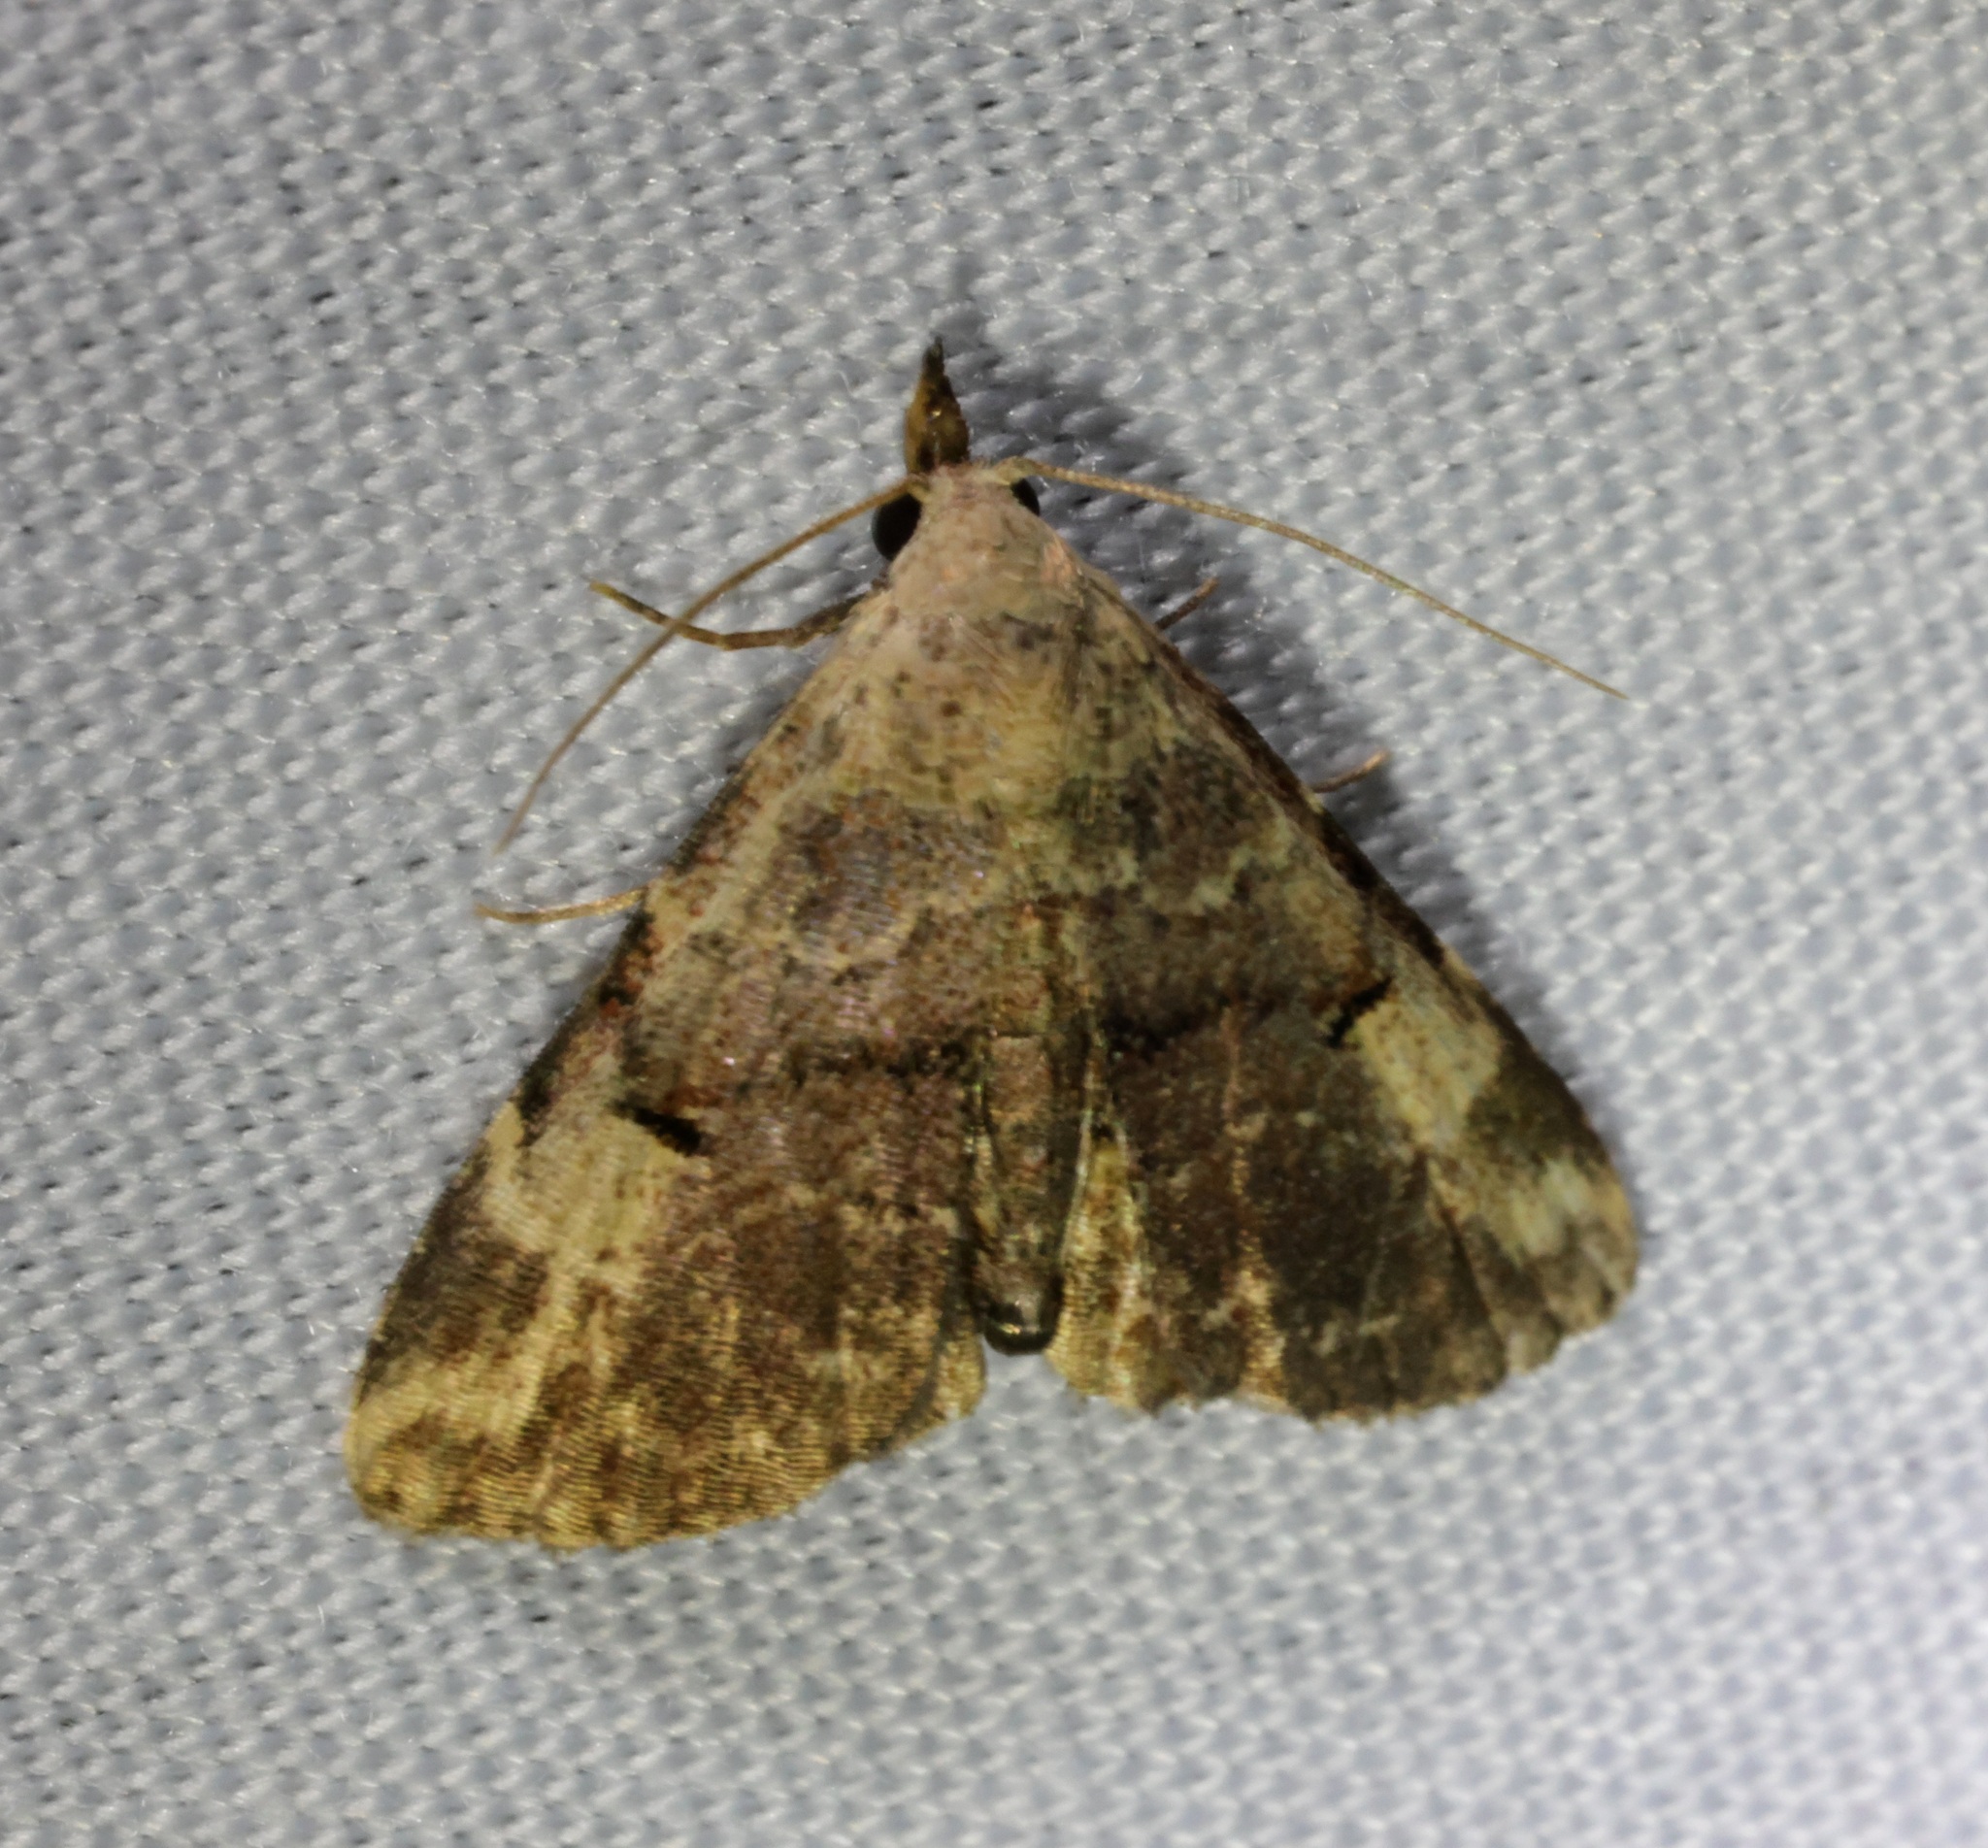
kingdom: Animalia
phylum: Arthropoda
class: Insecta
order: Lepidoptera
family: Erebidae
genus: Maguda
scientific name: Maguda suffusa
